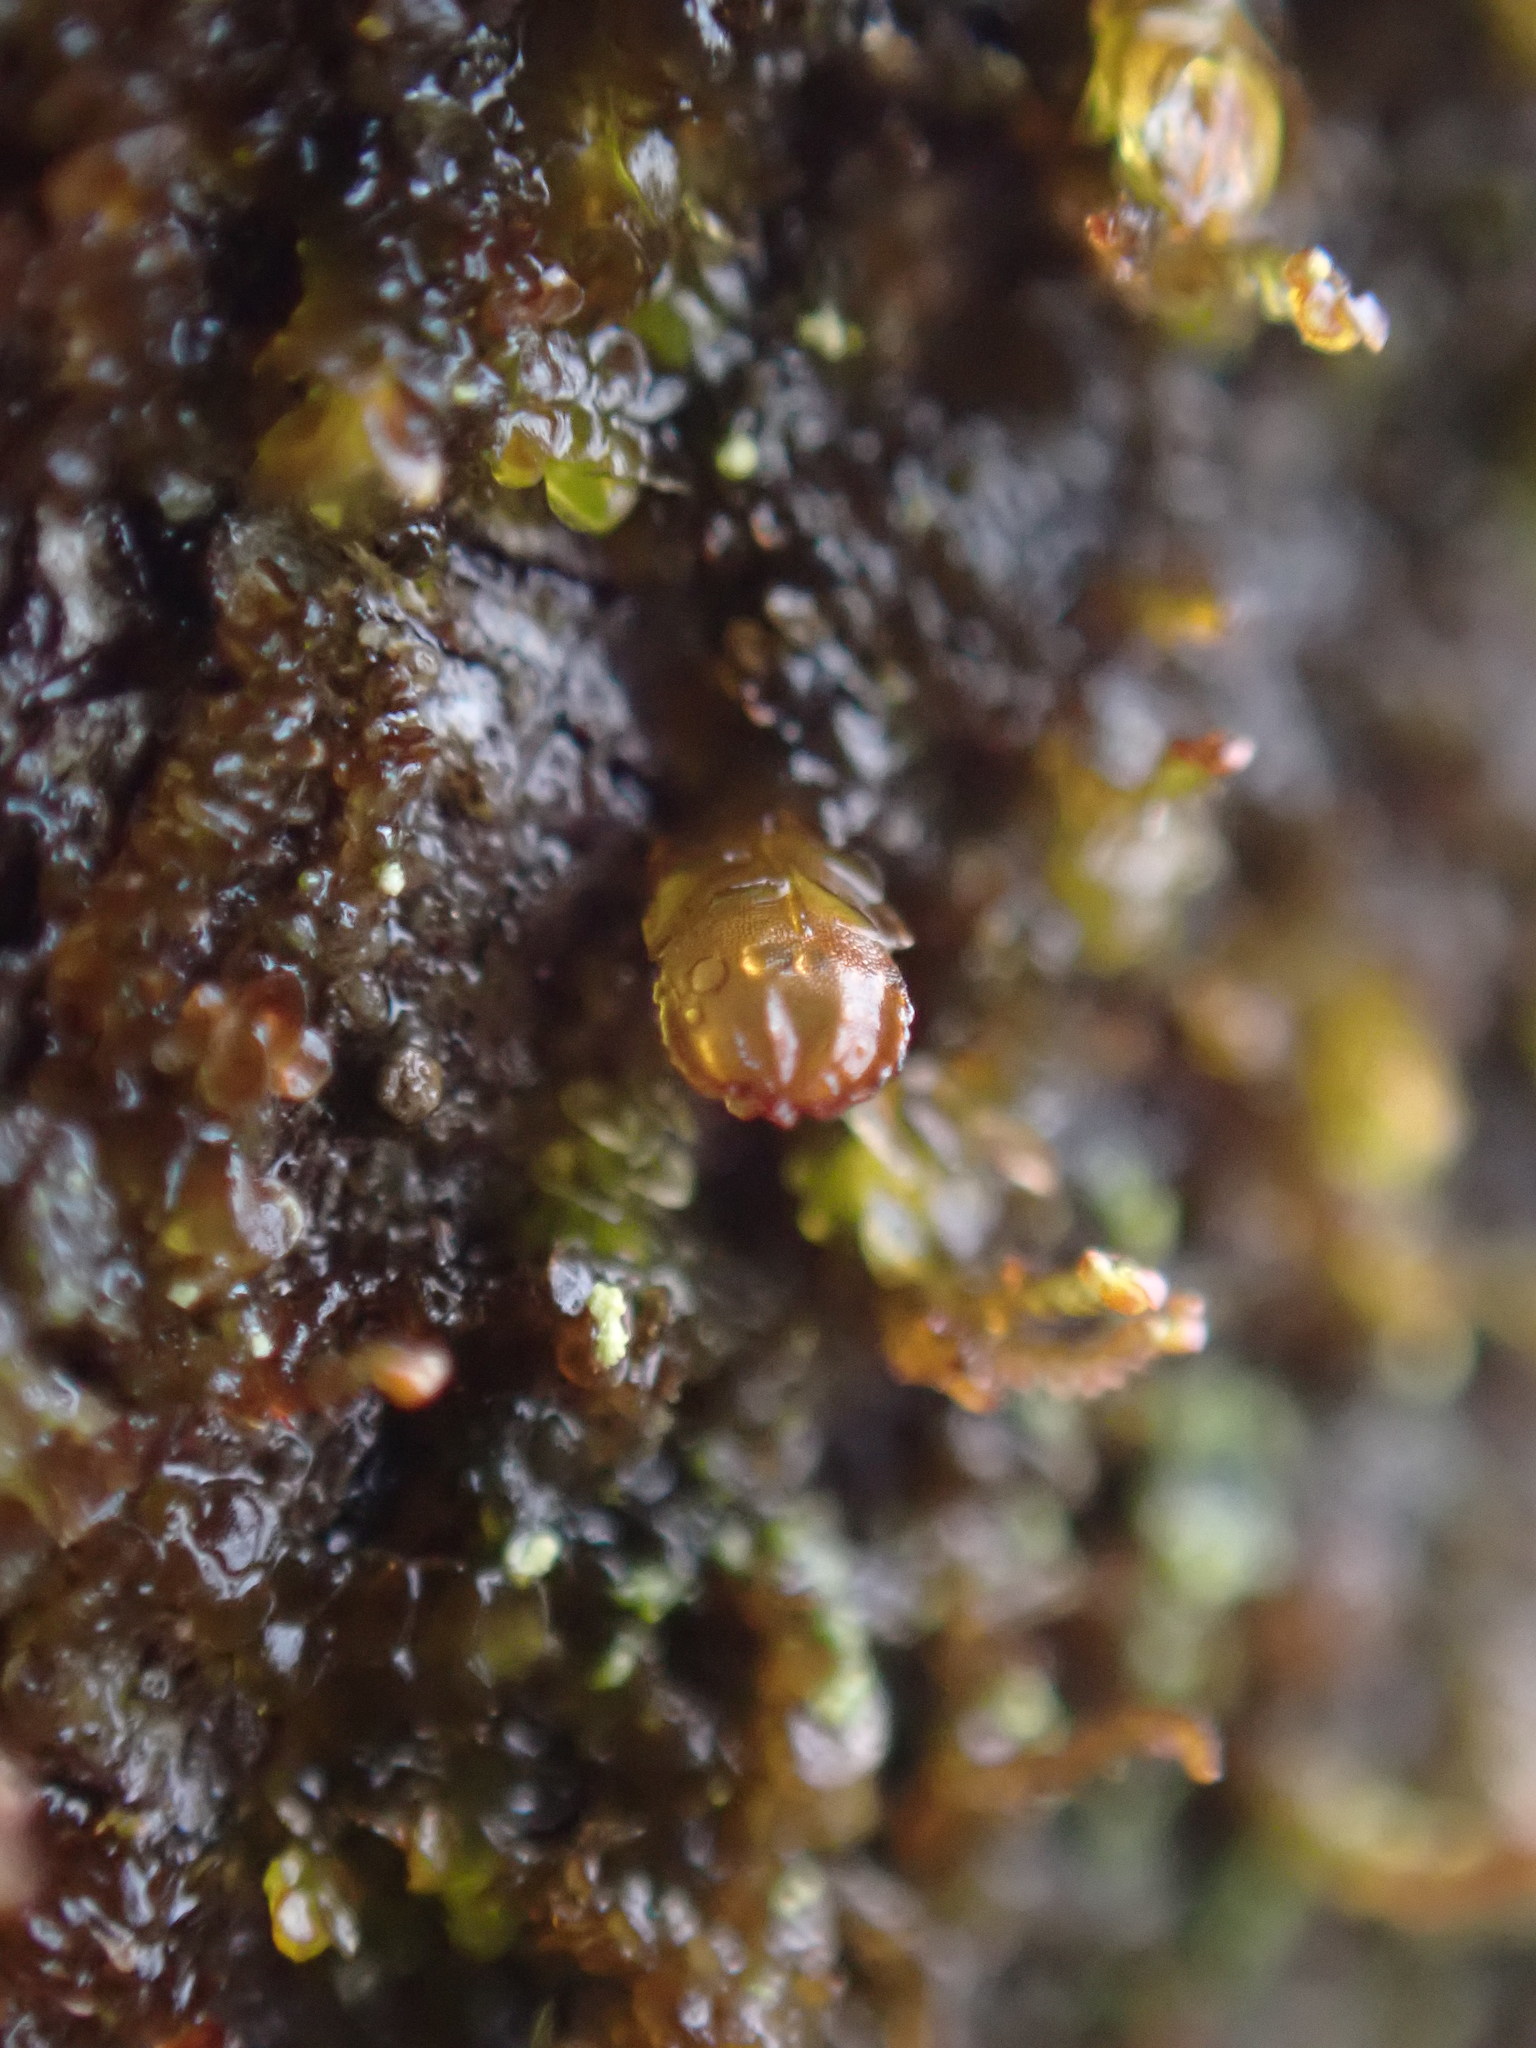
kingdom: Plantae
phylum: Marchantiophyta
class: Jungermanniopsida
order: Porellales
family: Frullaniaceae
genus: Frullania
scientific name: Frullania bolanderi
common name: Bolander s scalewort
